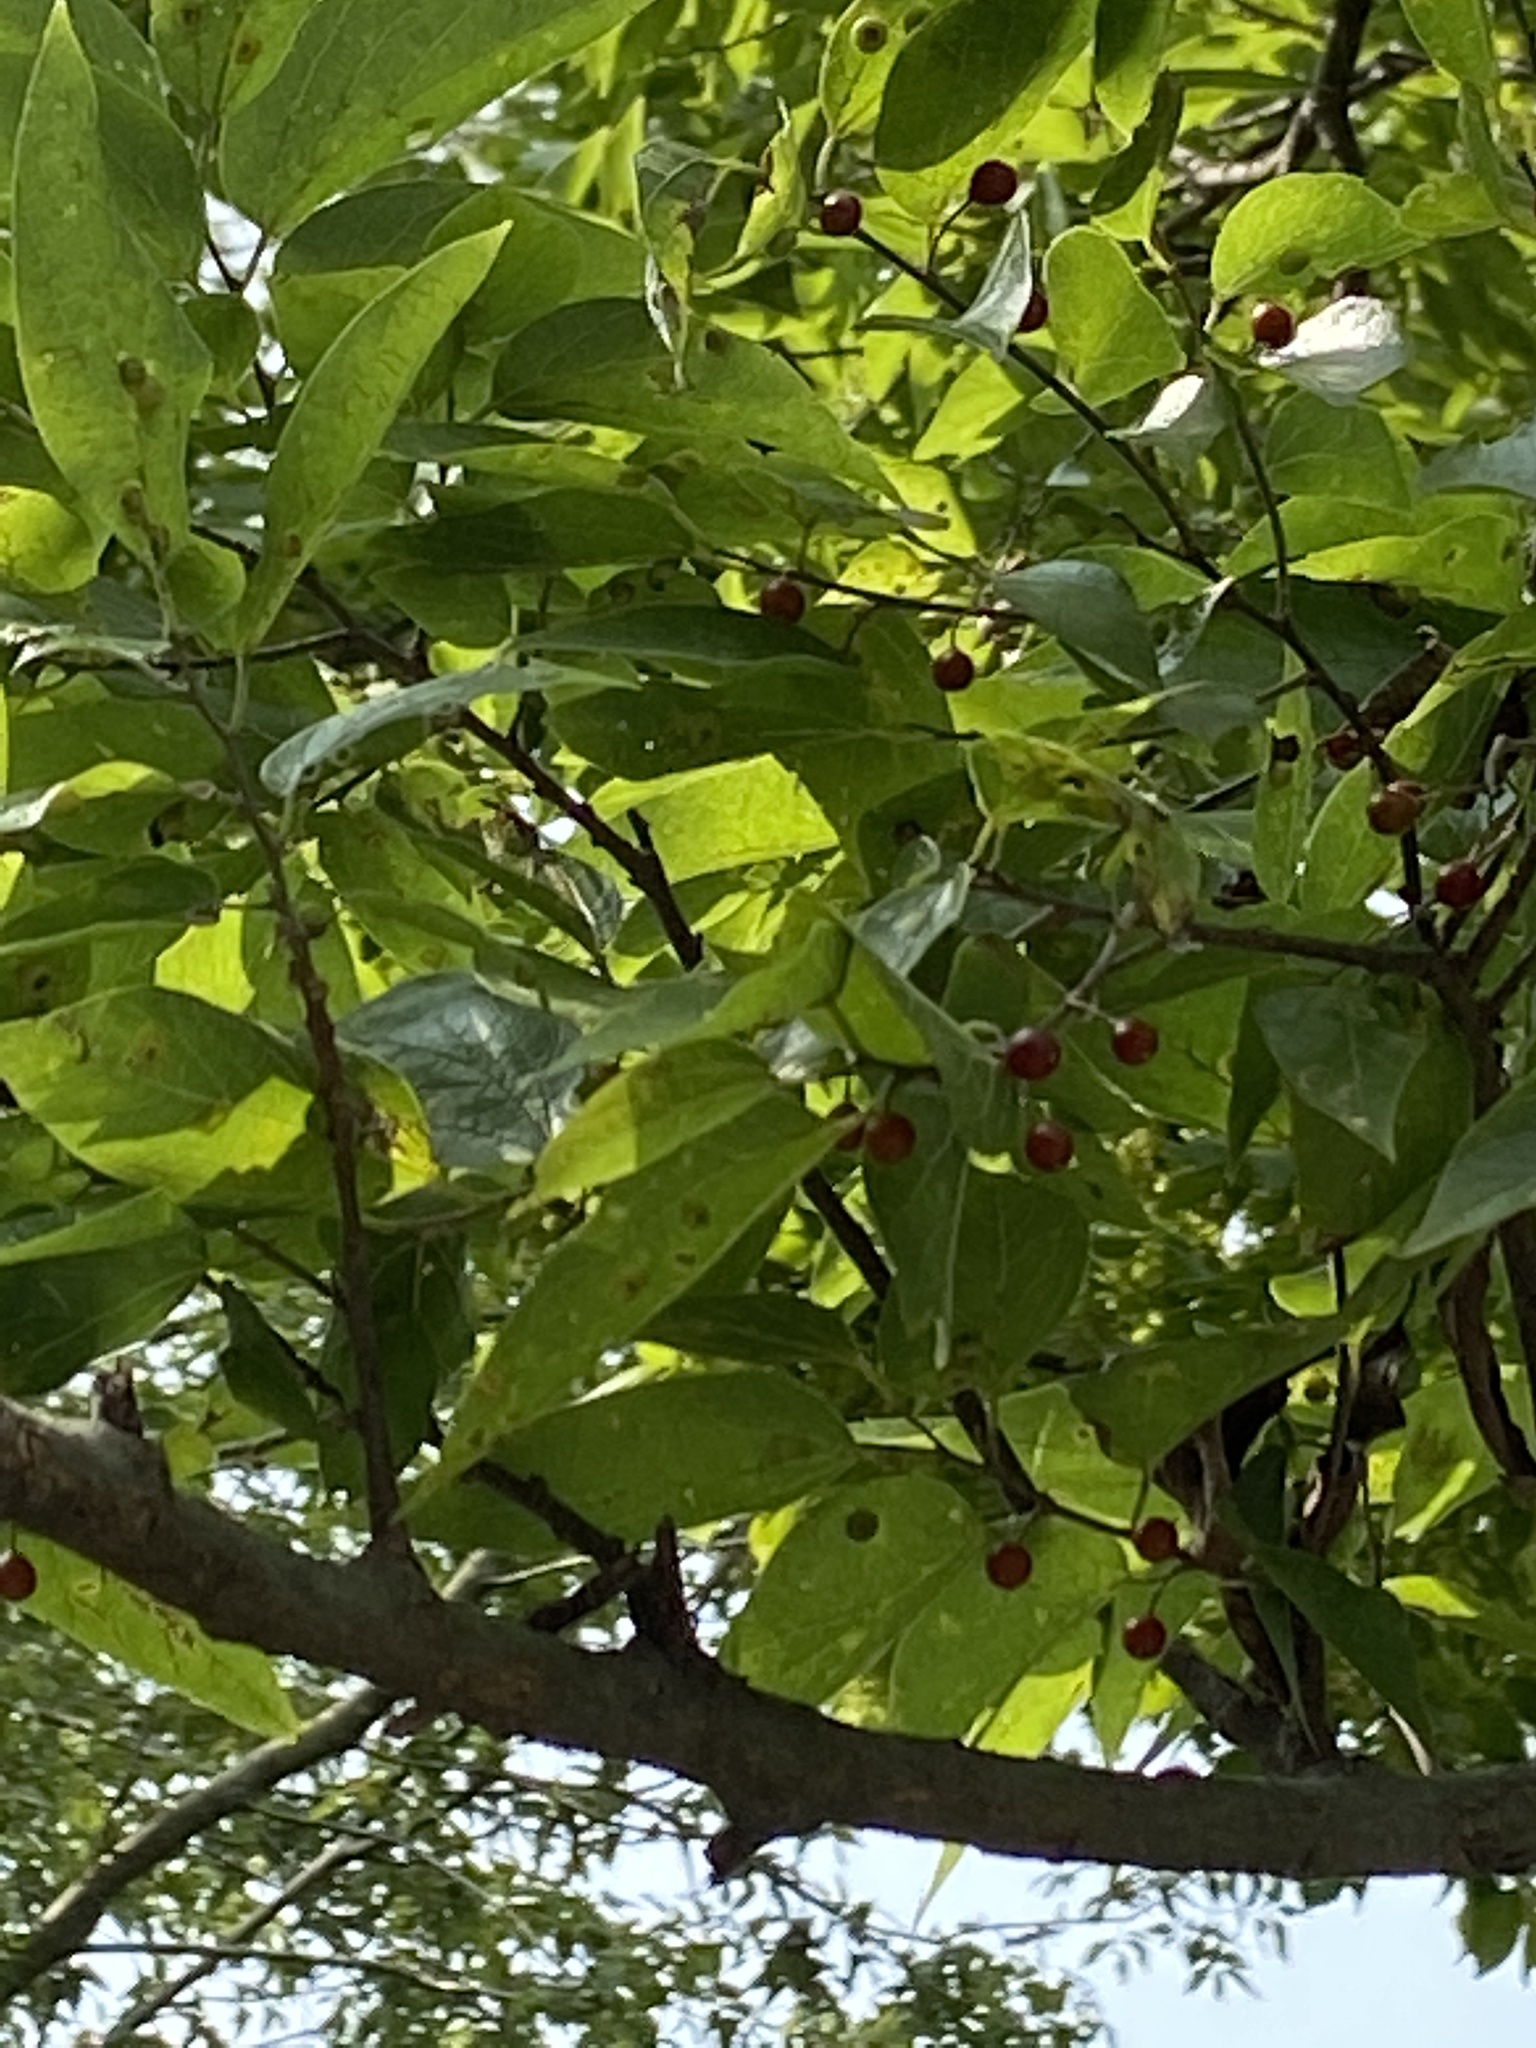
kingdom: Plantae
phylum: Tracheophyta
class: Magnoliopsida
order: Rosales
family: Cannabaceae
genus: Celtis
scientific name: Celtis laevigata
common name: Sugarberry
